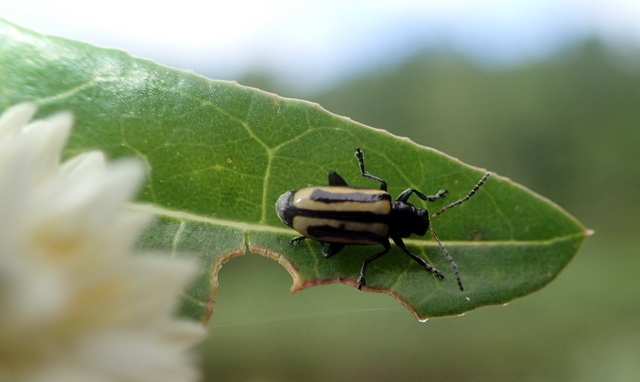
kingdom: Animalia
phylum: Arthropoda
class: Insecta
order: Coleoptera
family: Chrysomelidae
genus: Agasicles
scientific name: Agasicles hygrophila
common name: Alligatorweed flea beetle
